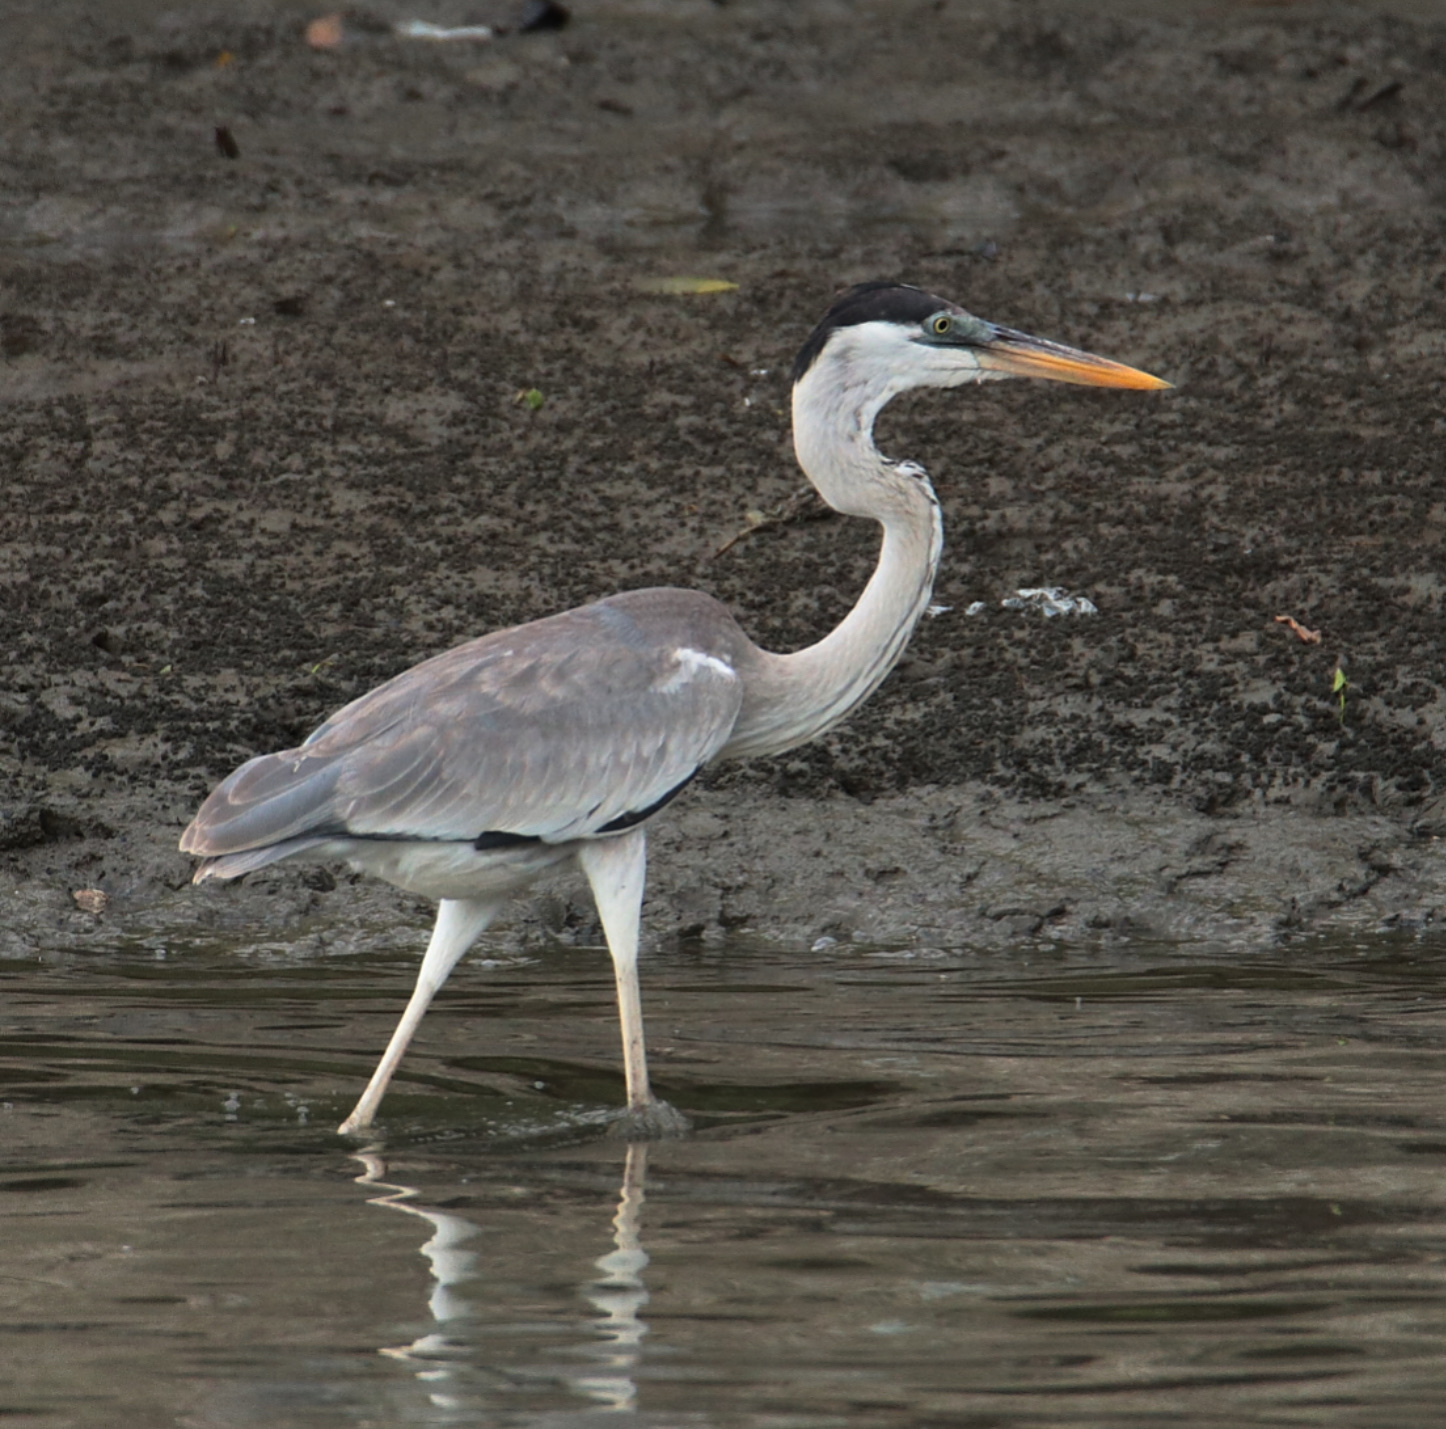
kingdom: Animalia
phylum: Chordata
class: Aves
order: Pelecaniformes
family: Ardeidae
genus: Ardea
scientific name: Ardea cocoi
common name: Cocoi heron
